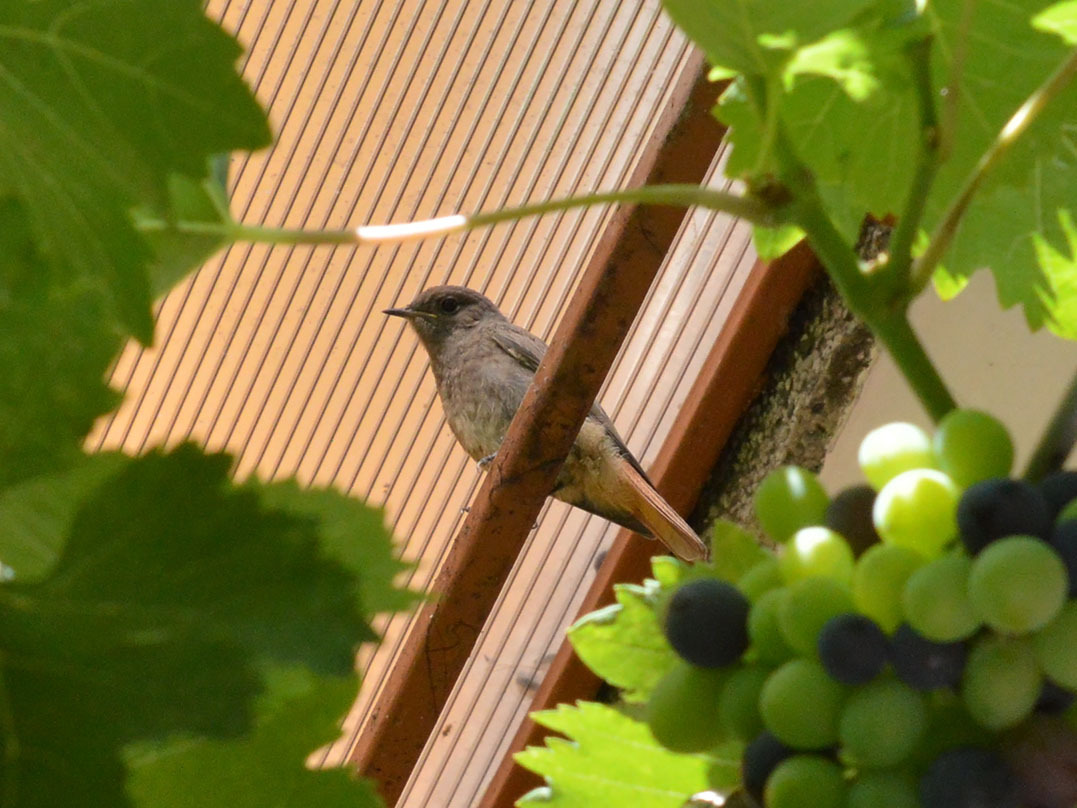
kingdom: Animalia
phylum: Chordata
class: Aves
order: Passeriformes
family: Muscicapidae
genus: Phoenicurus
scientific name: Phoenicurus ochruros
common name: Black redstart
